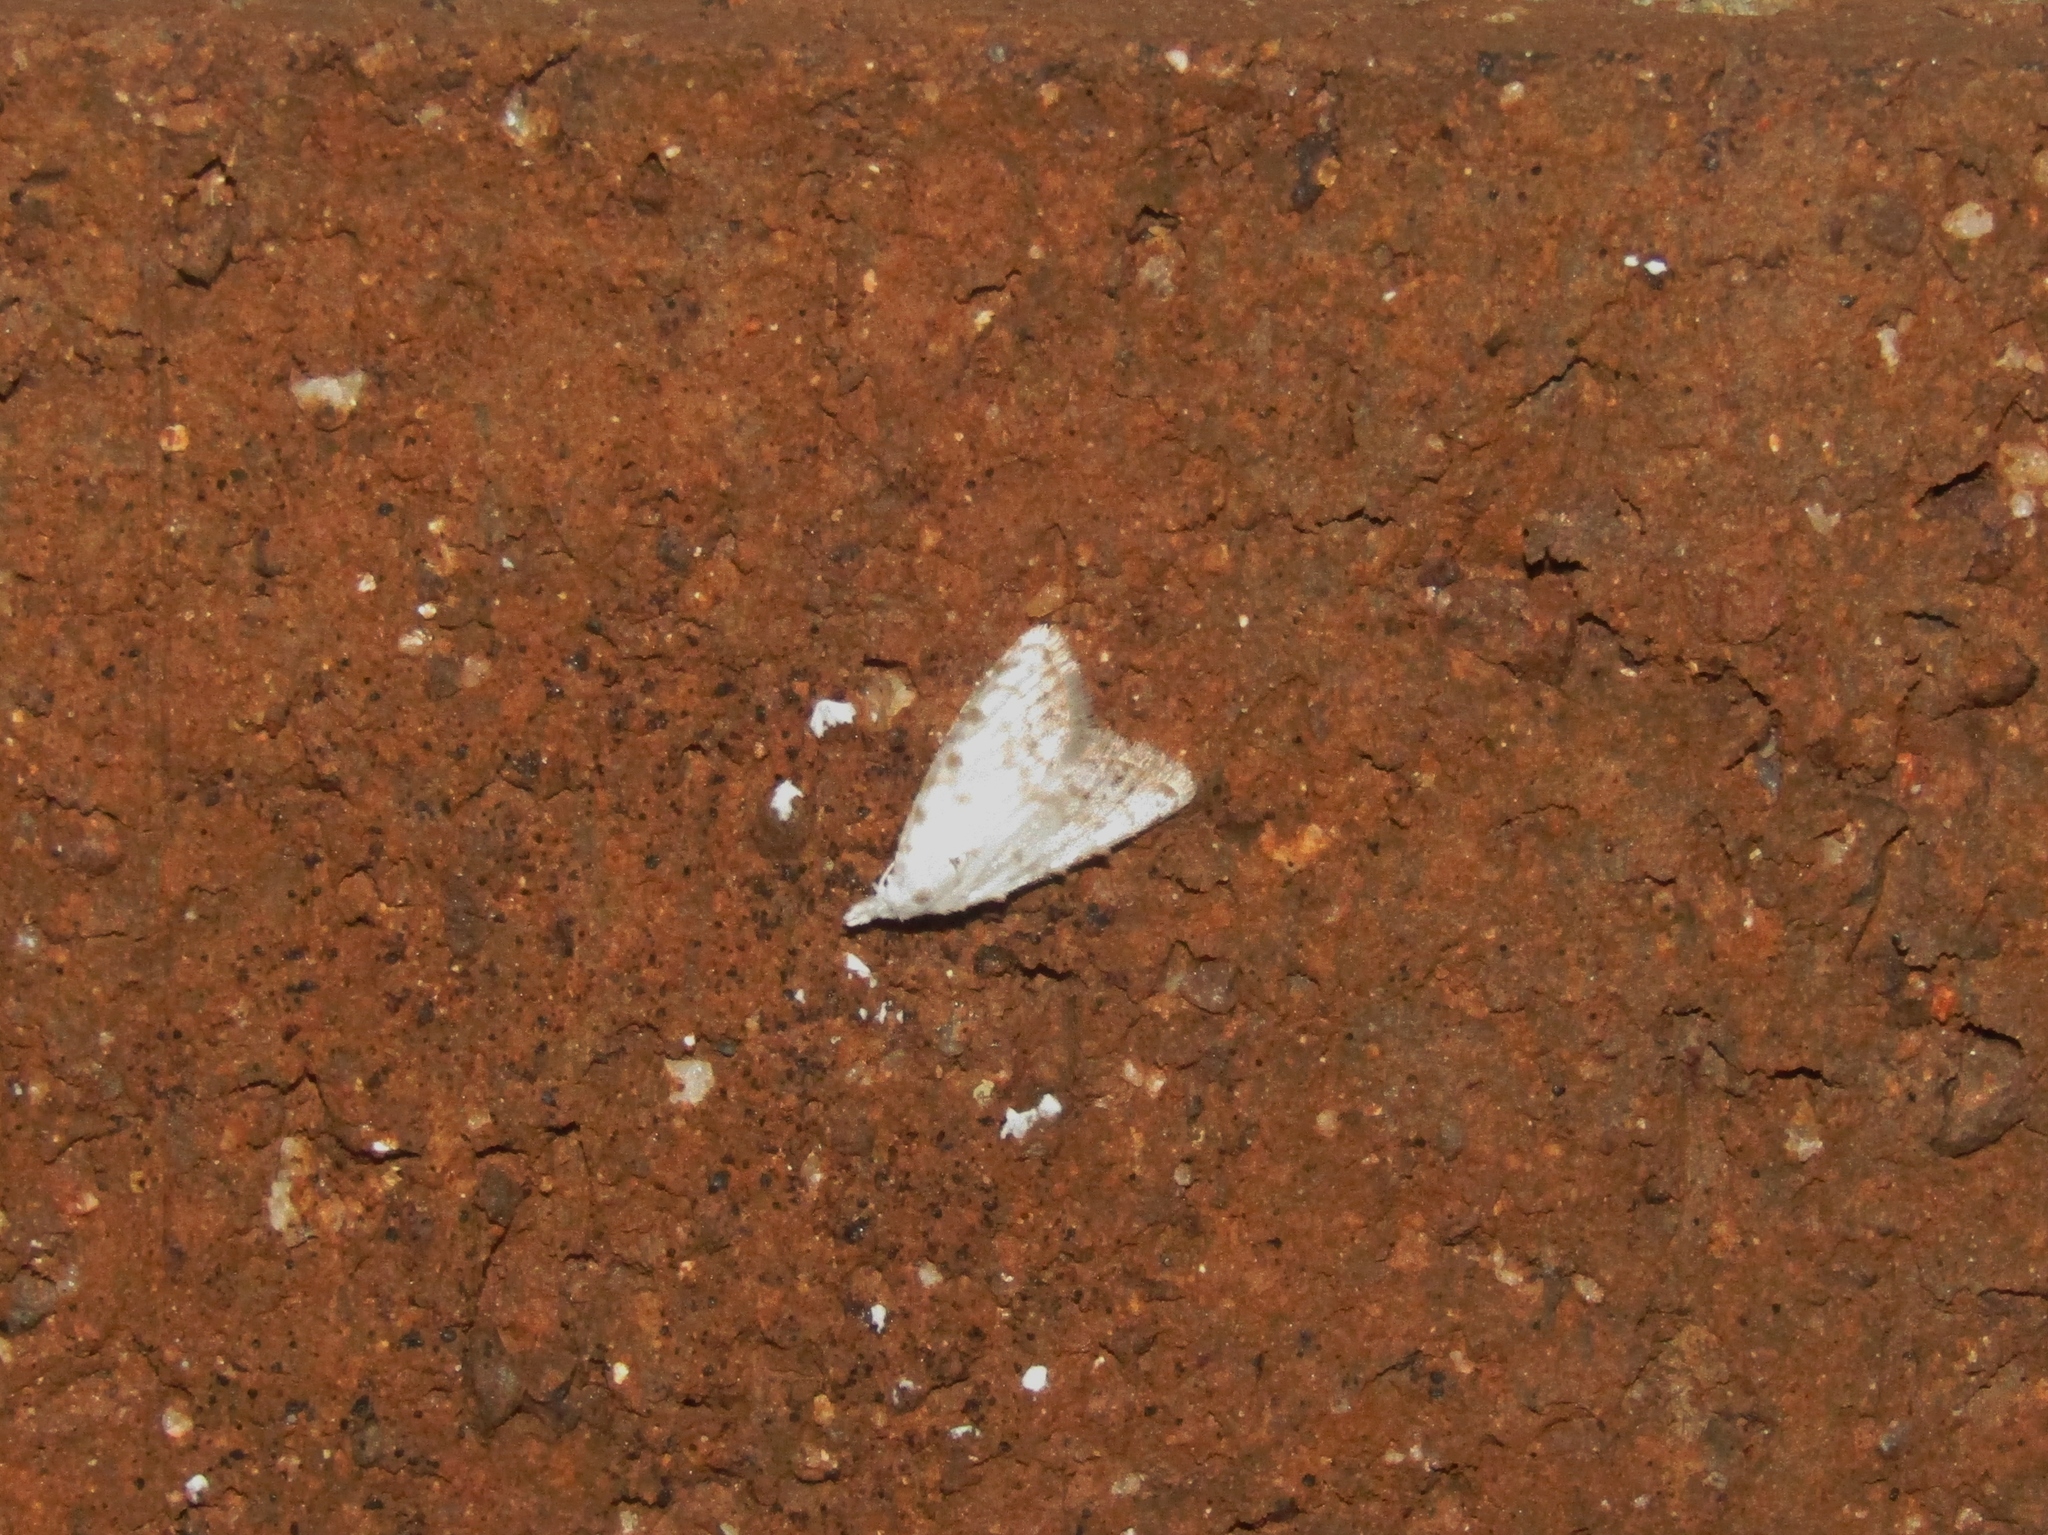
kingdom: Animalia
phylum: Arthropoda
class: Insecta
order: Lepidoptera
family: Nolidae
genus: Nola
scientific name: Nola cereella
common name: Sorghum webworm moth
